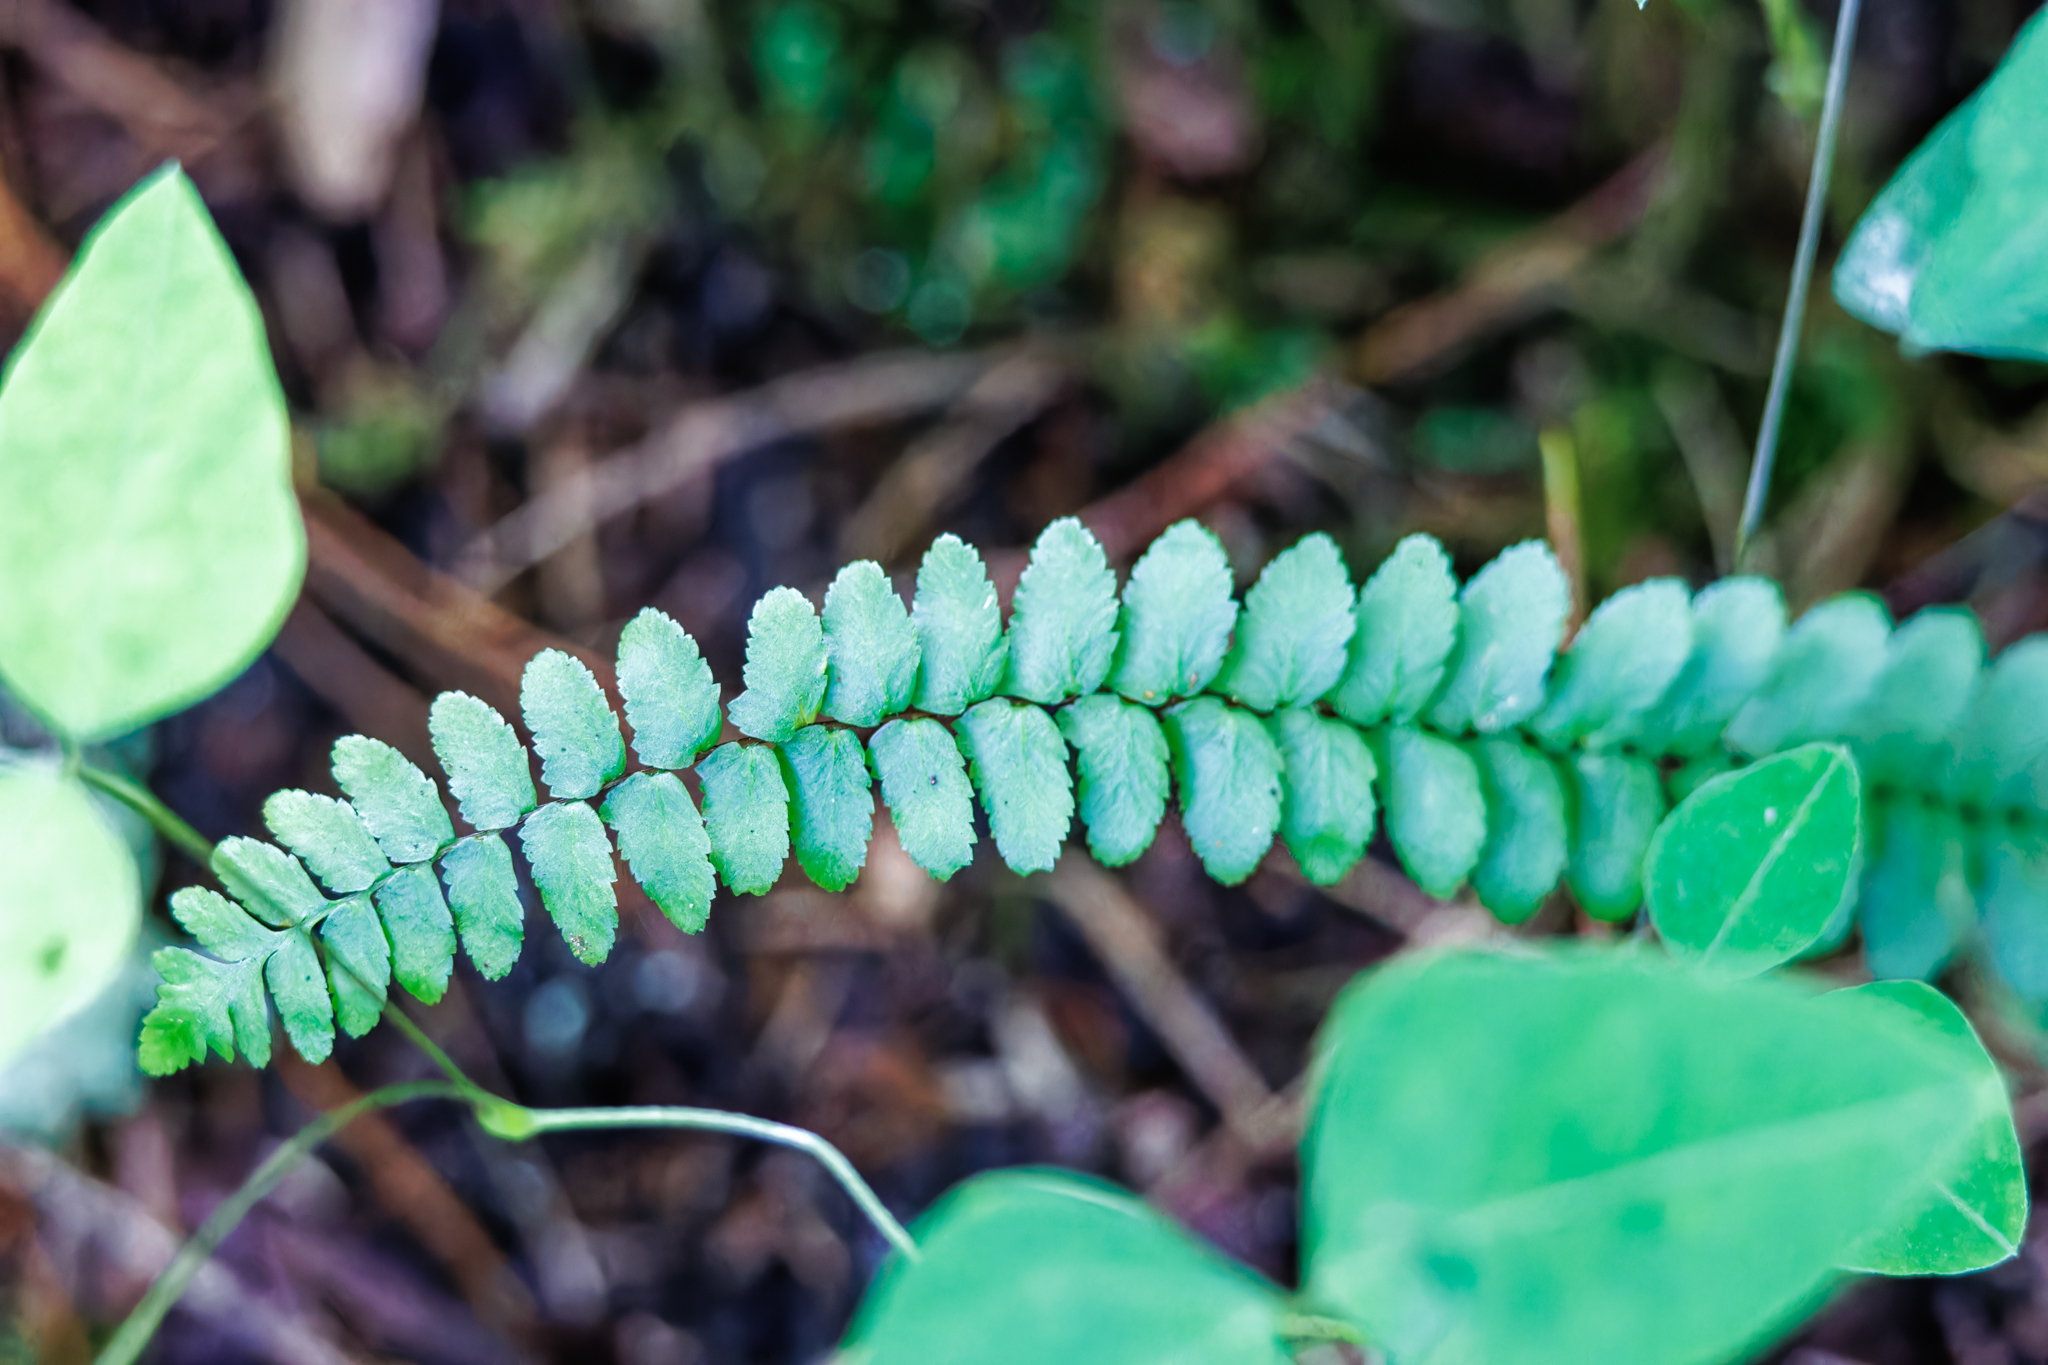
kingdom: Plantae
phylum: Tracheophyta
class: Polypodiopsida
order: Polypodiales
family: Aspleniaceae
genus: Asplenium
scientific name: Asplenium platyneuron
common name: Ebony spleenwort
